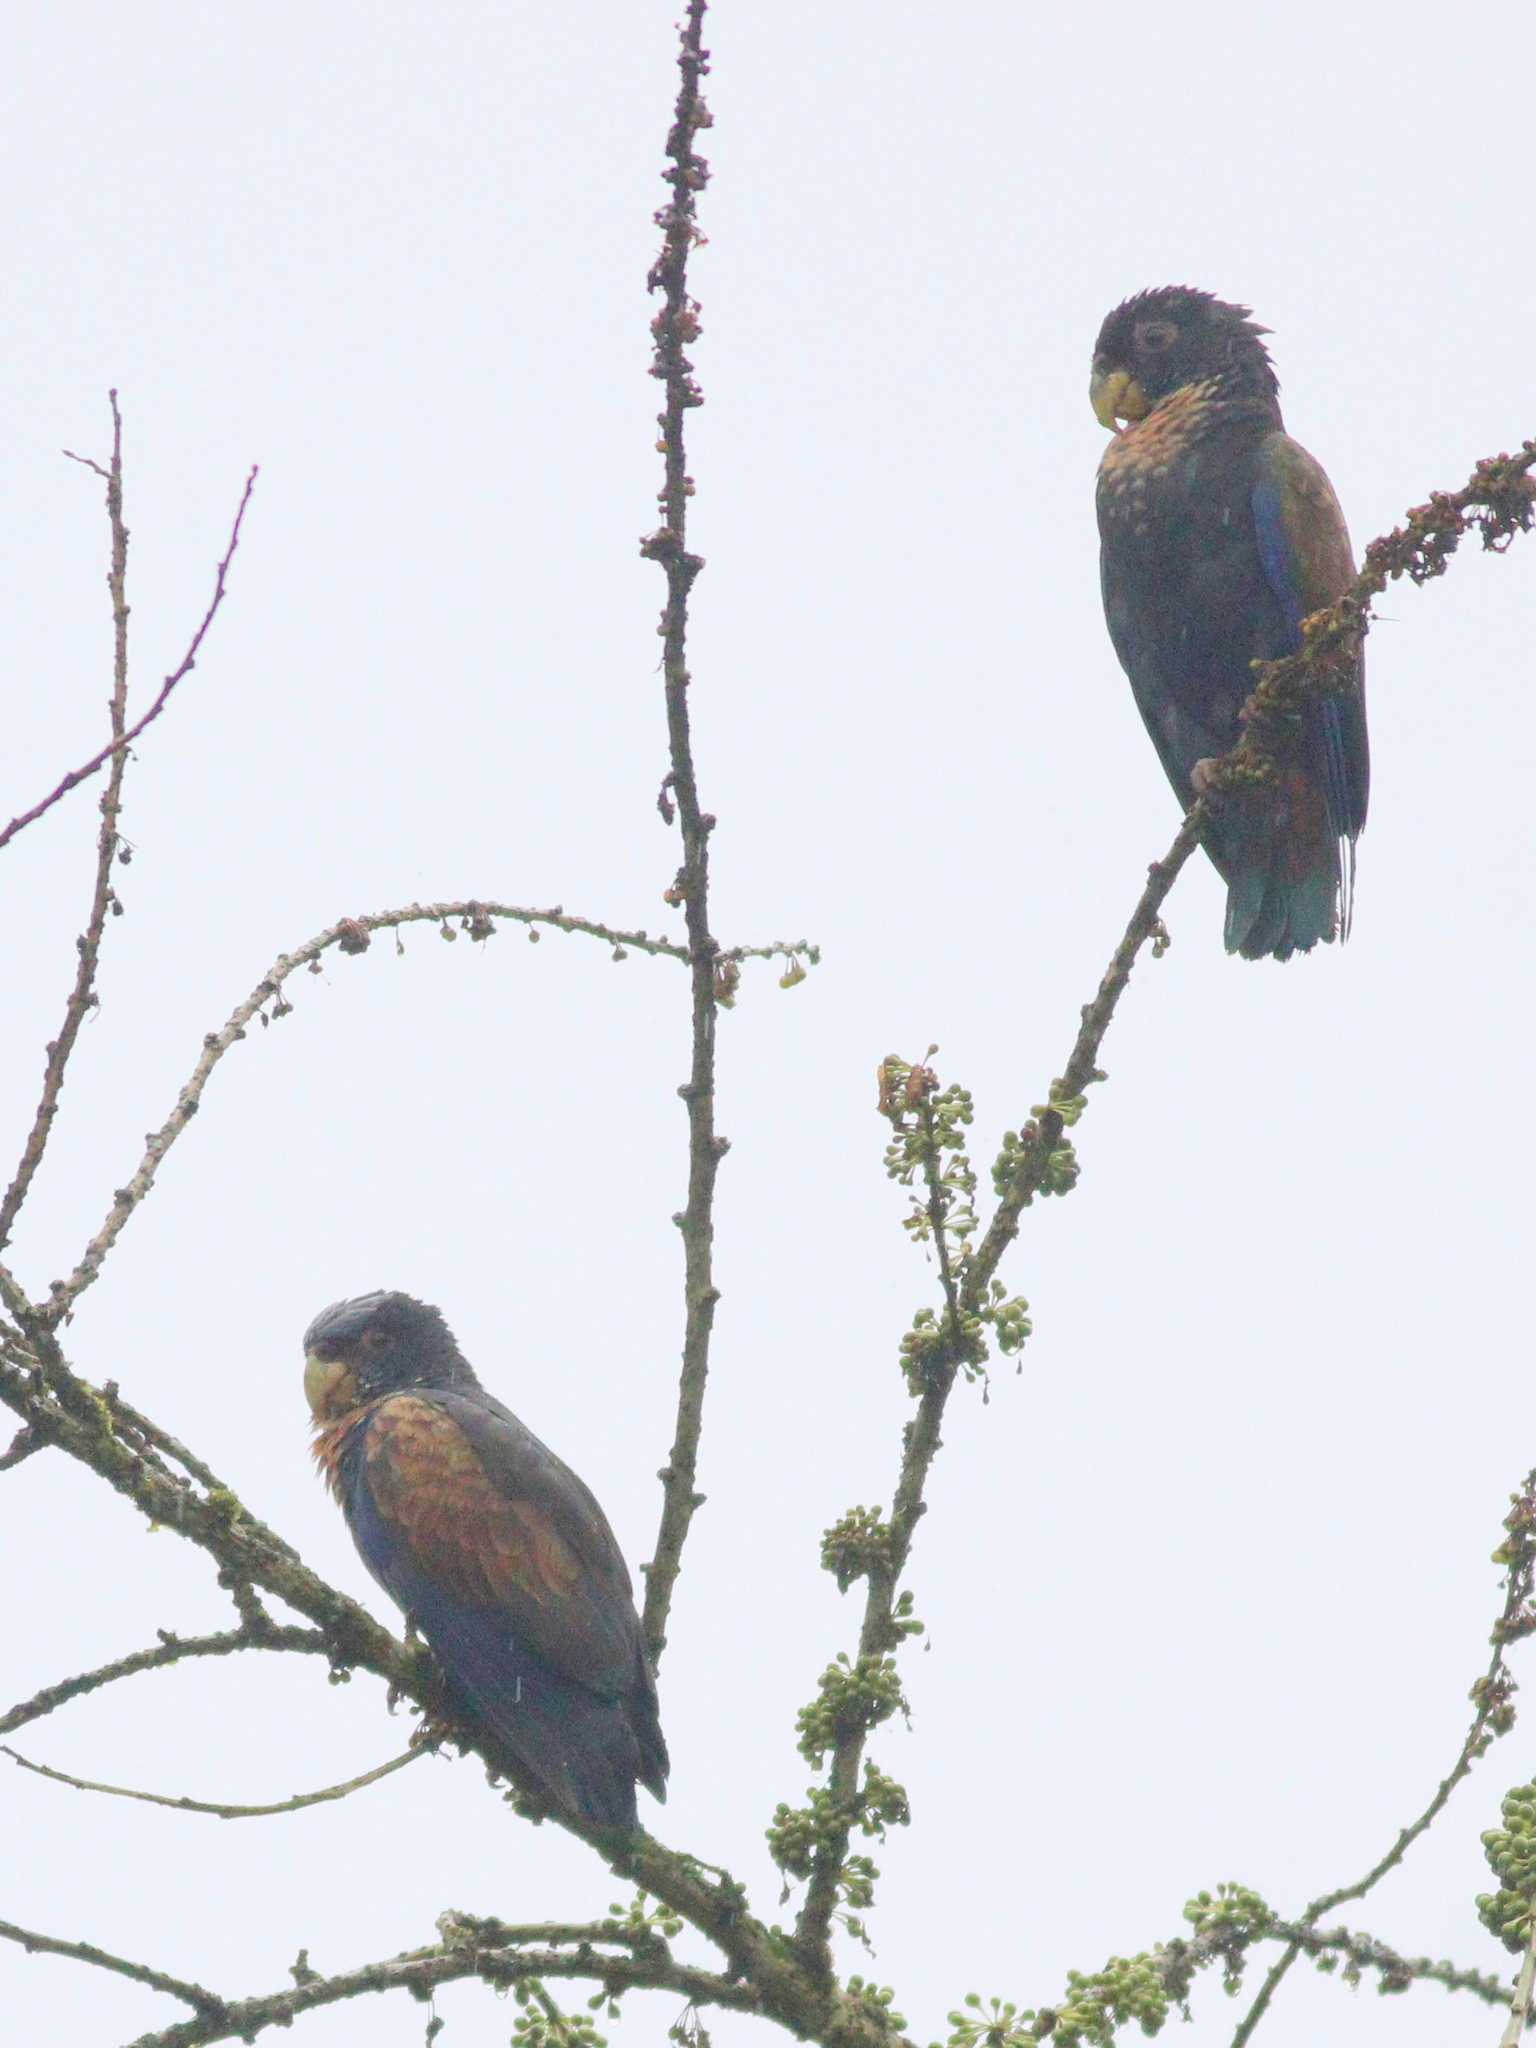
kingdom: Animalia
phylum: Chordata
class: Aves
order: Psittaciformes
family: Psittacidae
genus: Pionus
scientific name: Pionus chalcopterus
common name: Bronze-winged parrot
